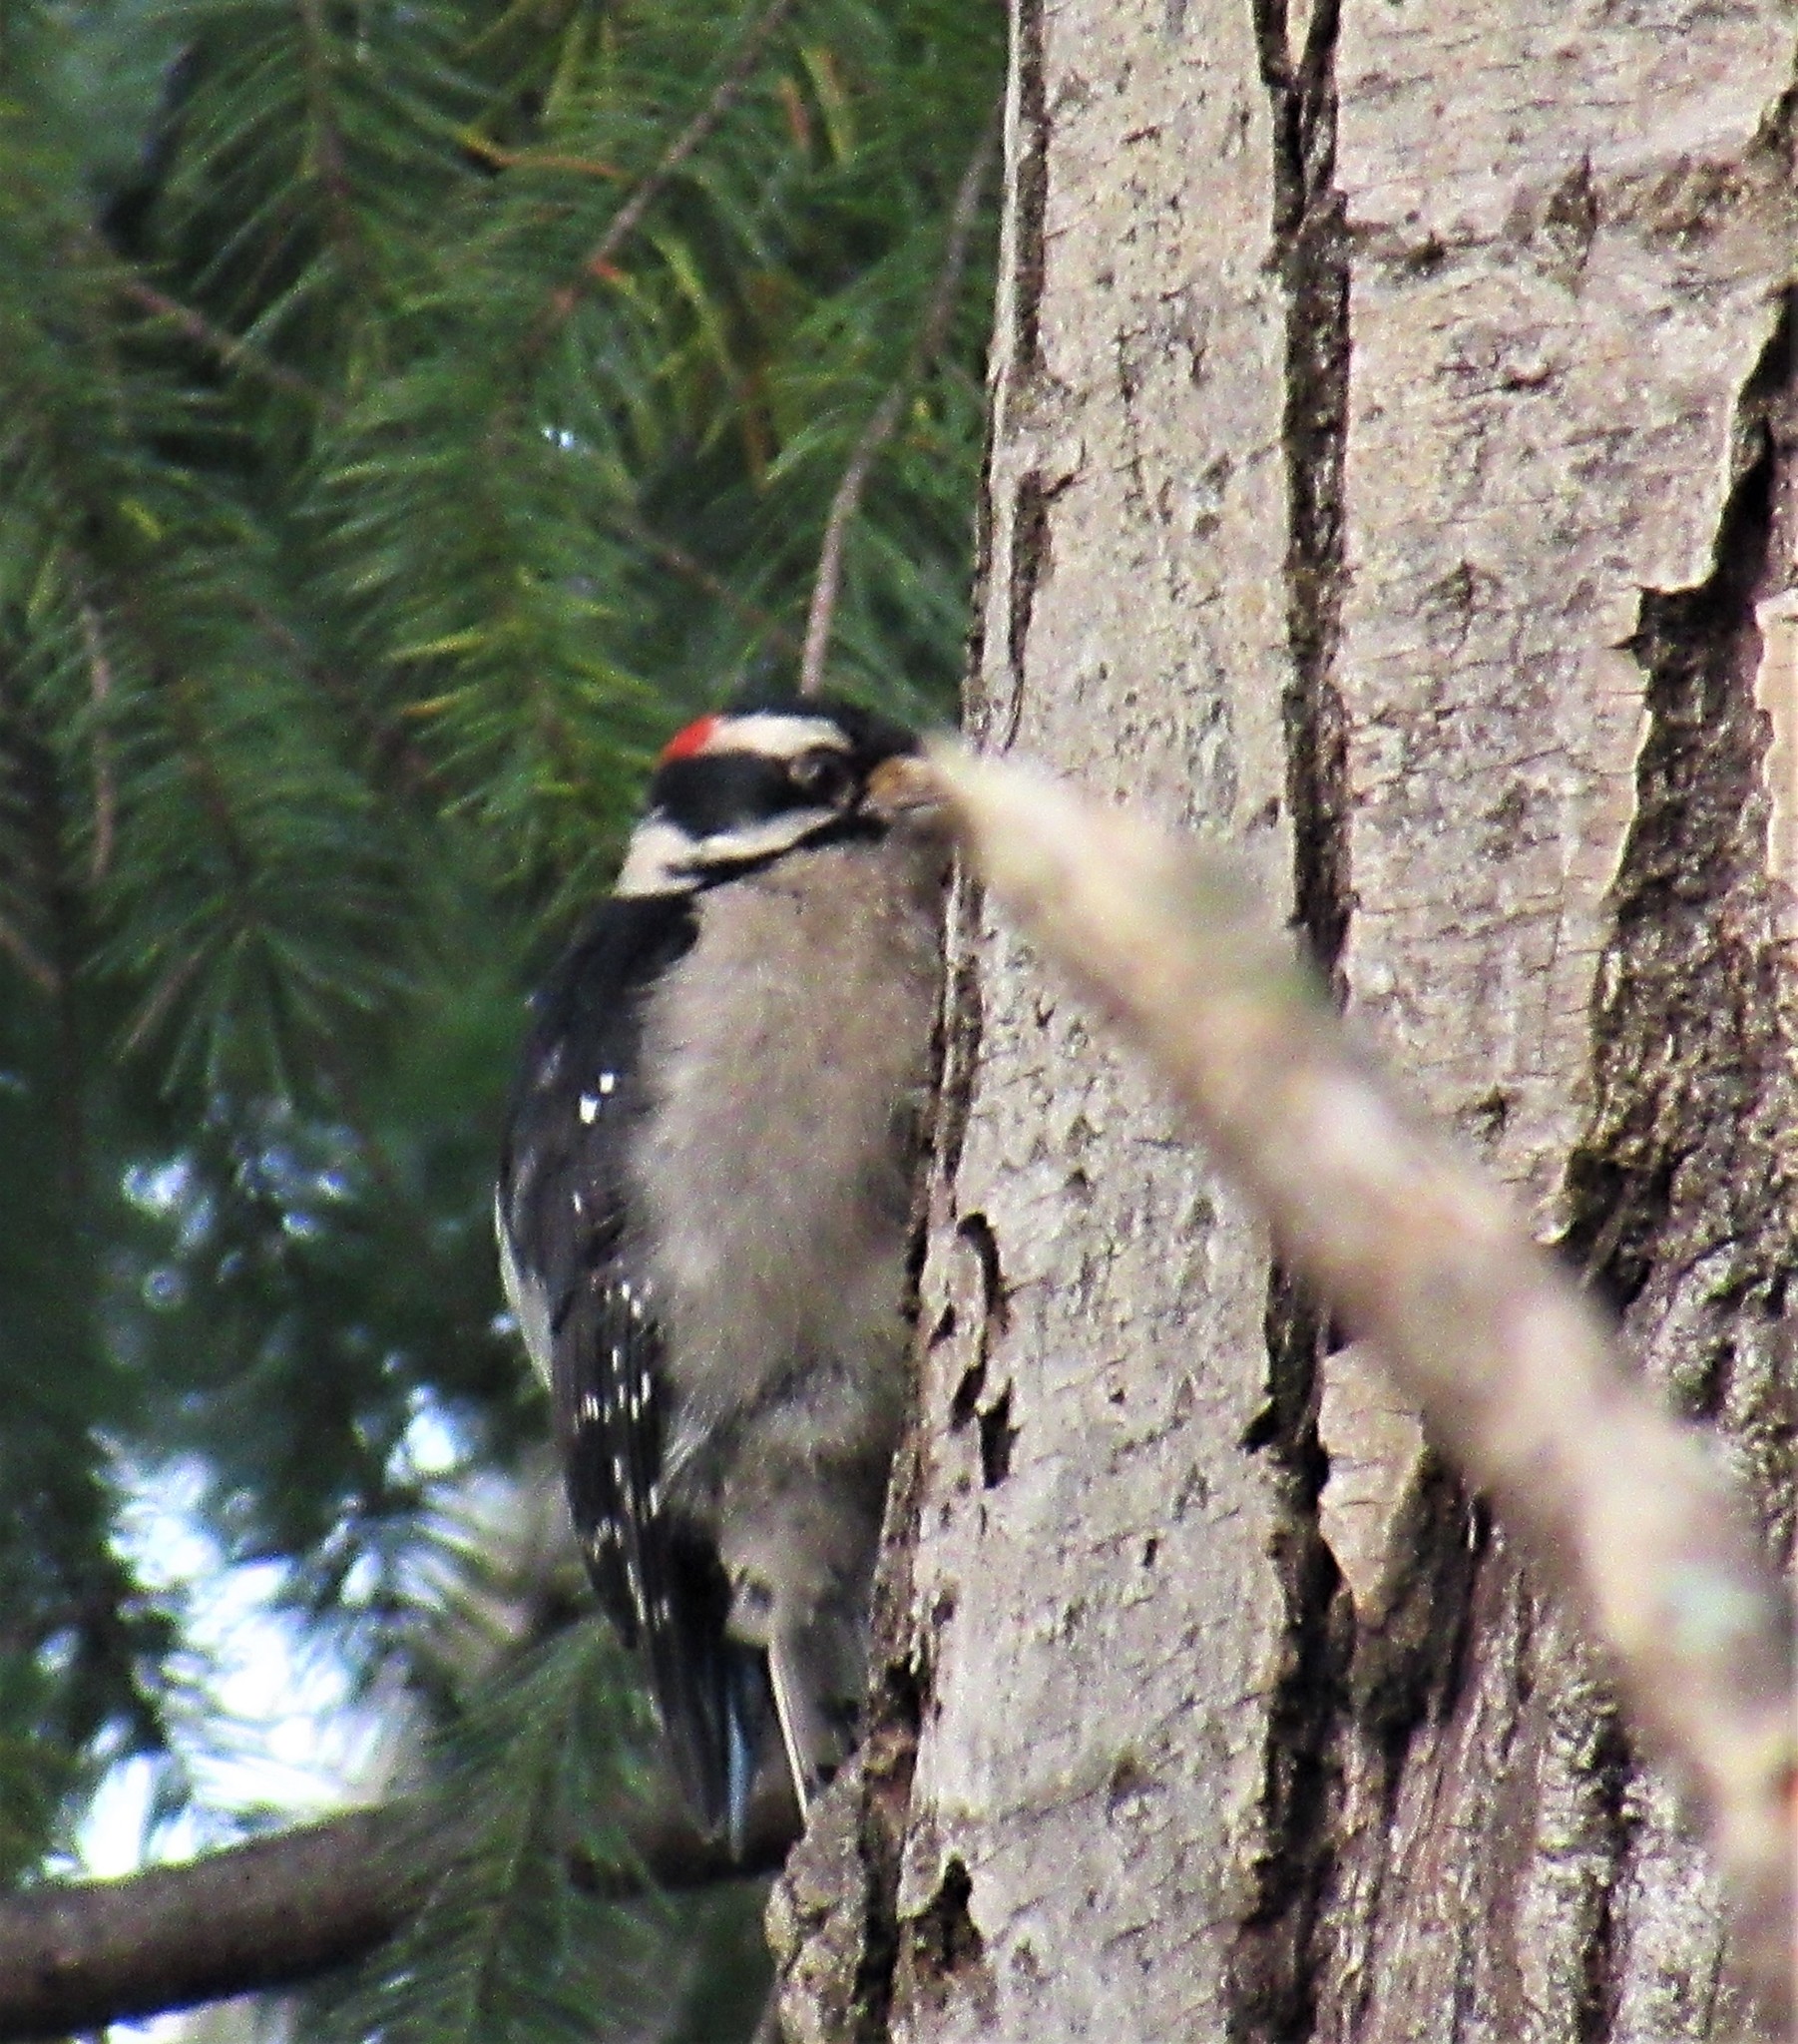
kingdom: Animalia
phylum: Chordata
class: Aves
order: Piciformes
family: Picidae
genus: Dryobates
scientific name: Dryobates pubescens
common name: Downy woodpecker
